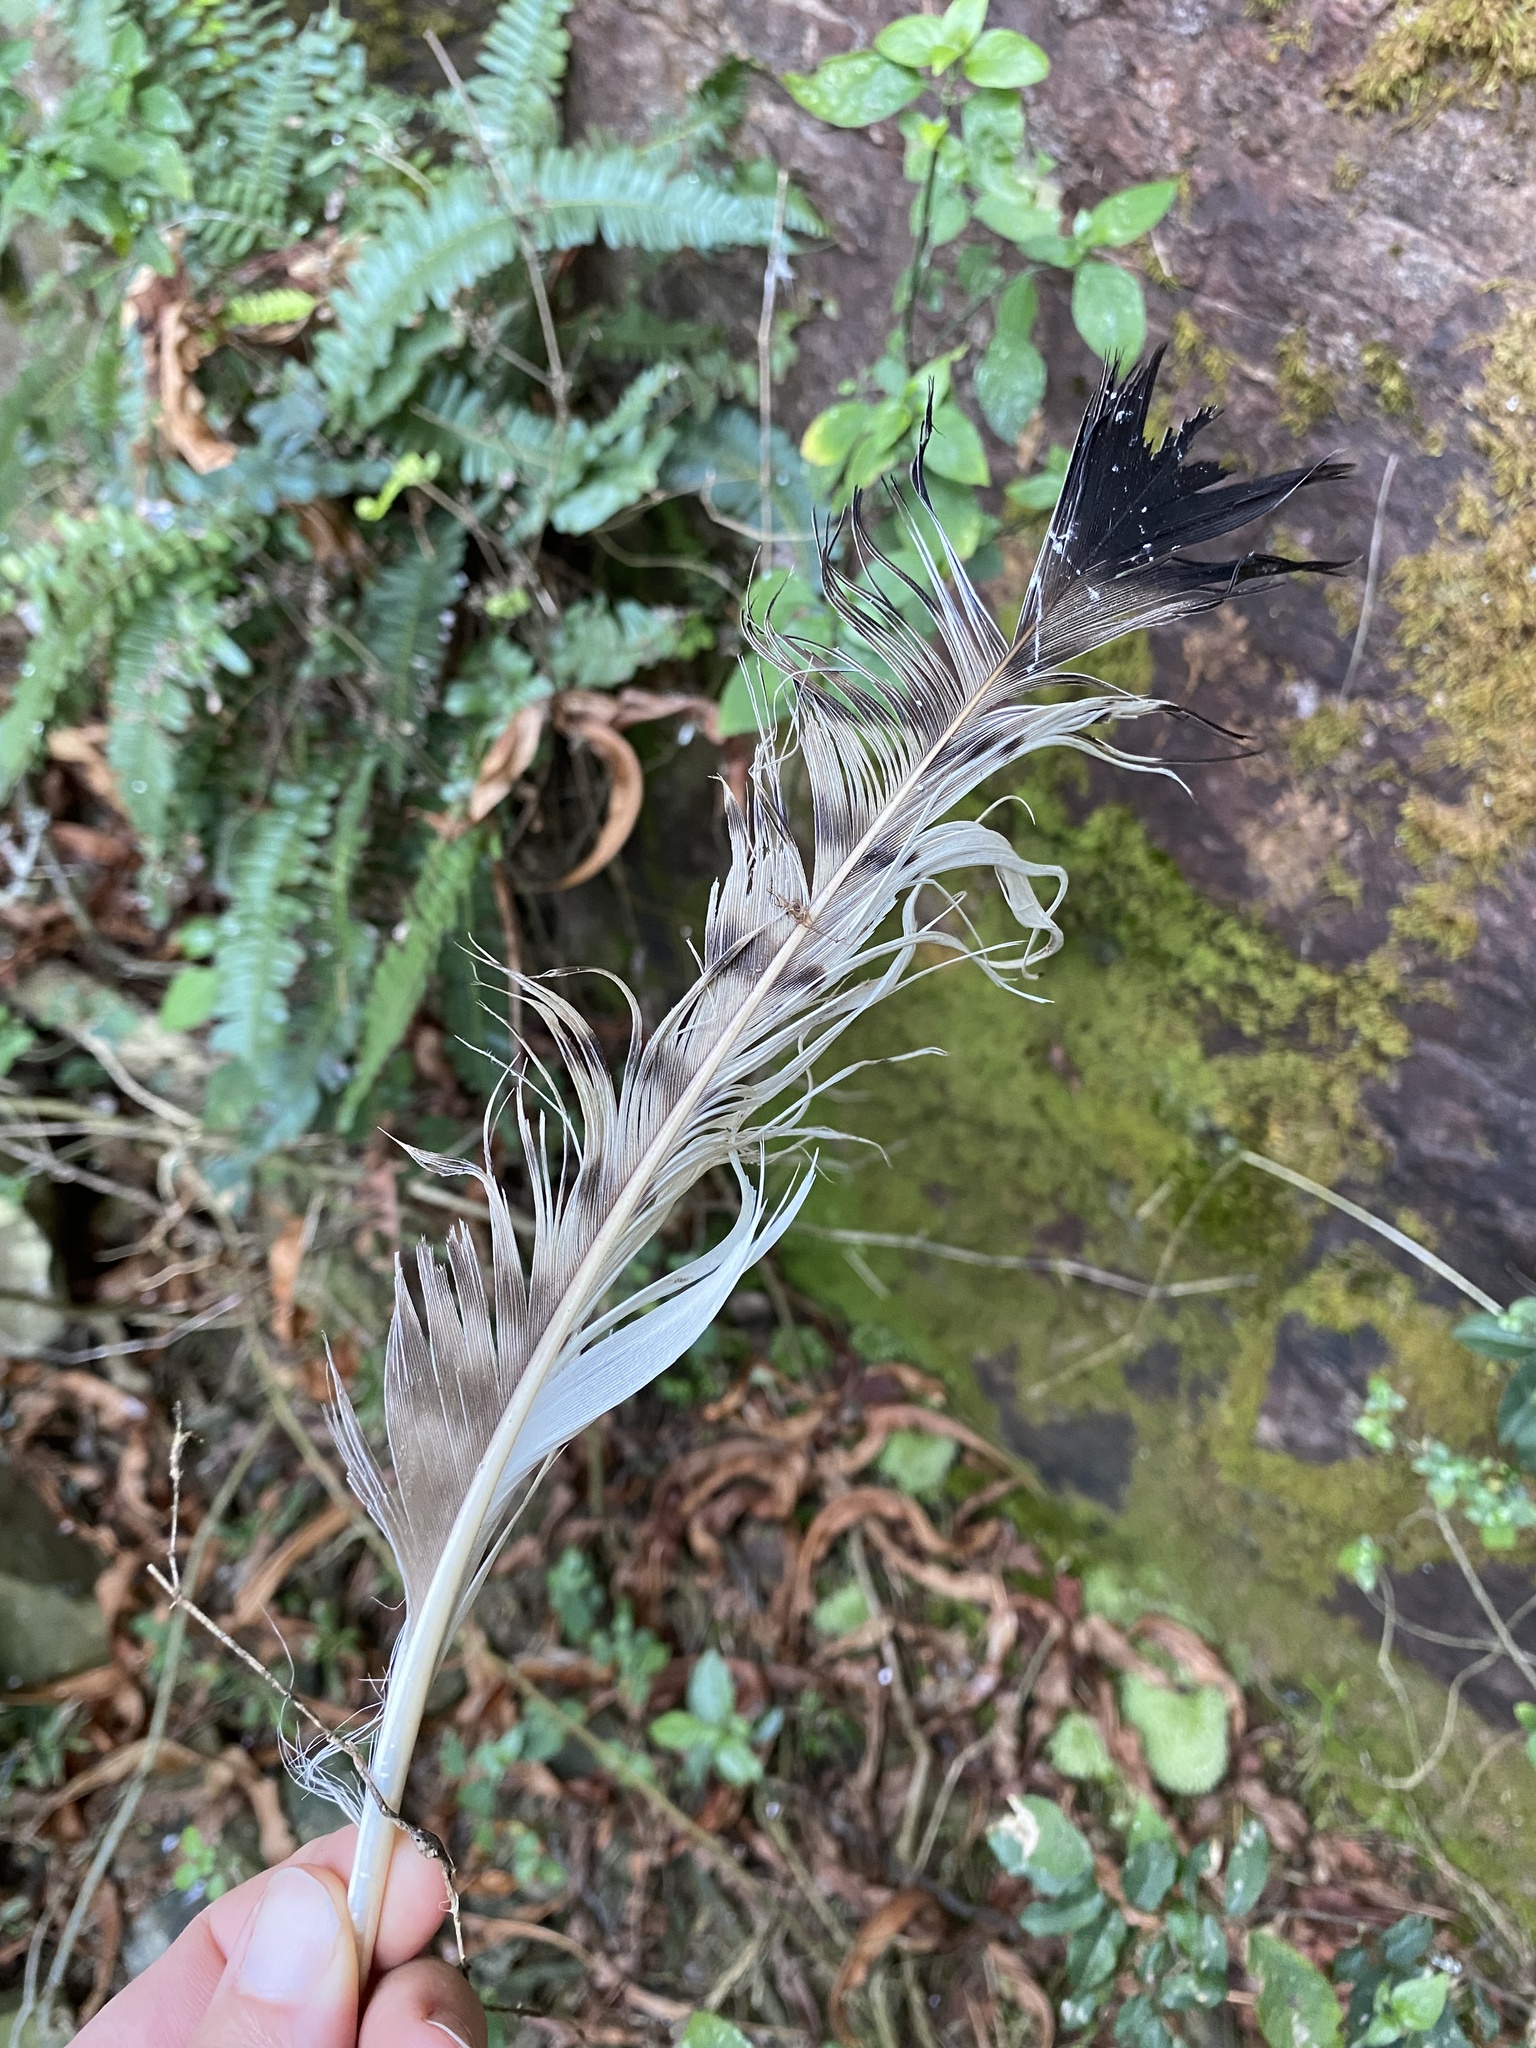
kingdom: Animalia
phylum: Chordata
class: Aves
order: Accipitriformes
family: Accipitridae
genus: Buteo
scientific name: Buteo rufofuscus
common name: Jackal buzzard
